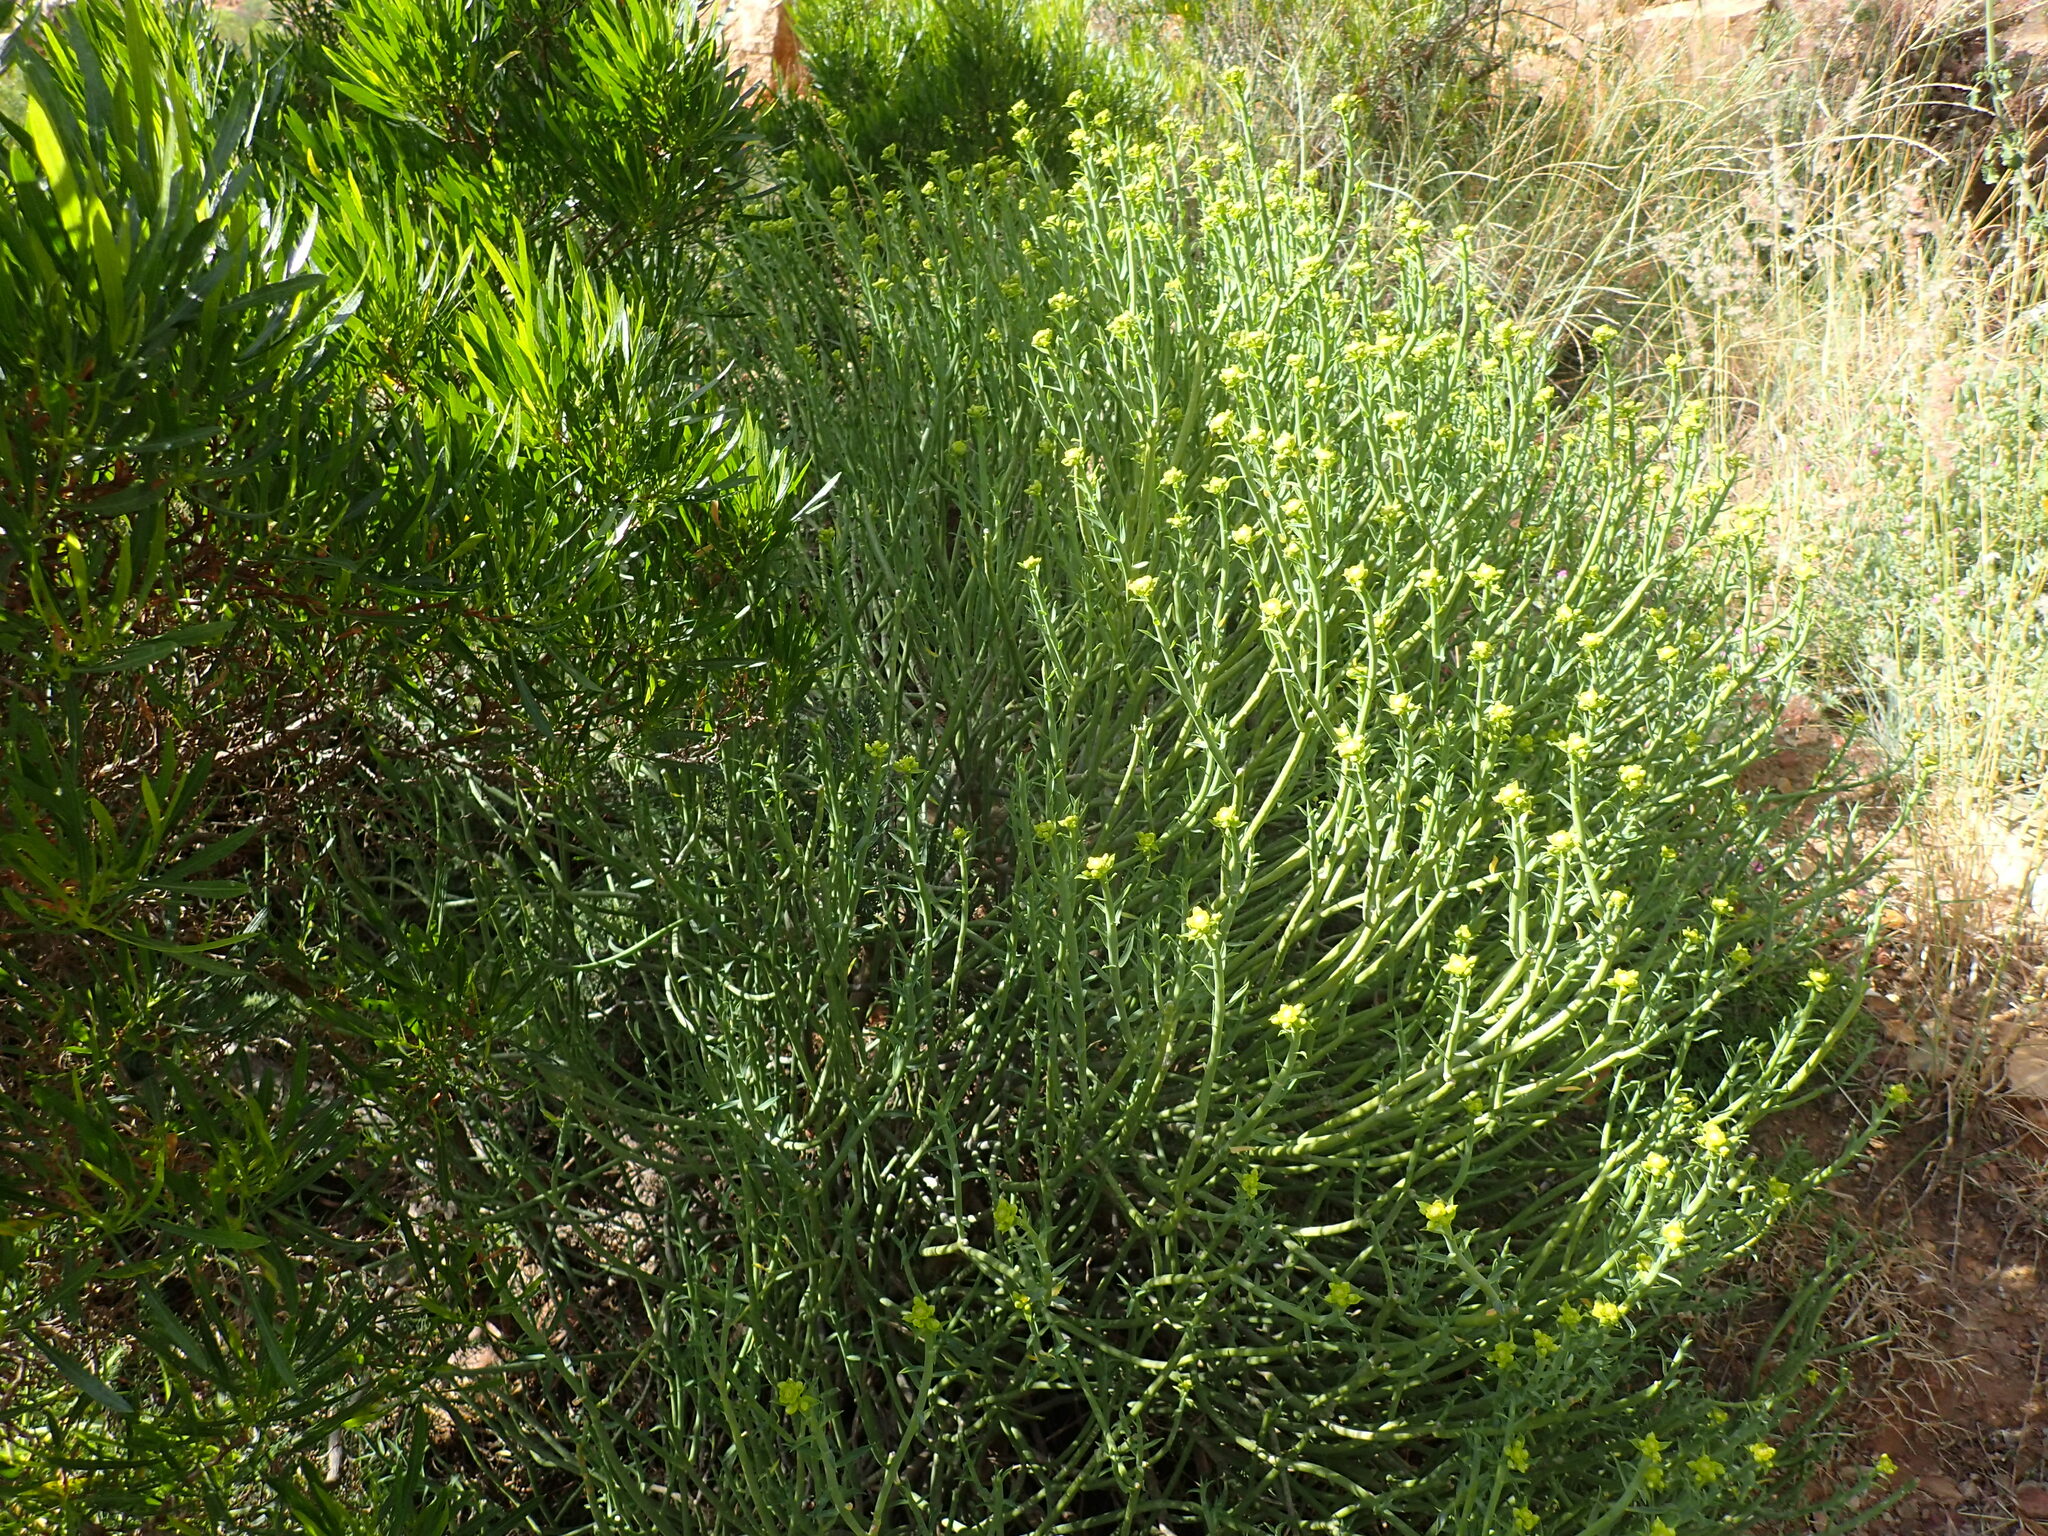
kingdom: Plantae
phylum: Tracheophyta
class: Magnoliopsida
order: Malpighiales
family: Euphorbiaceae
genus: Euphorbia
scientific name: Euphorbia mauritanica
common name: Jackal's-food
